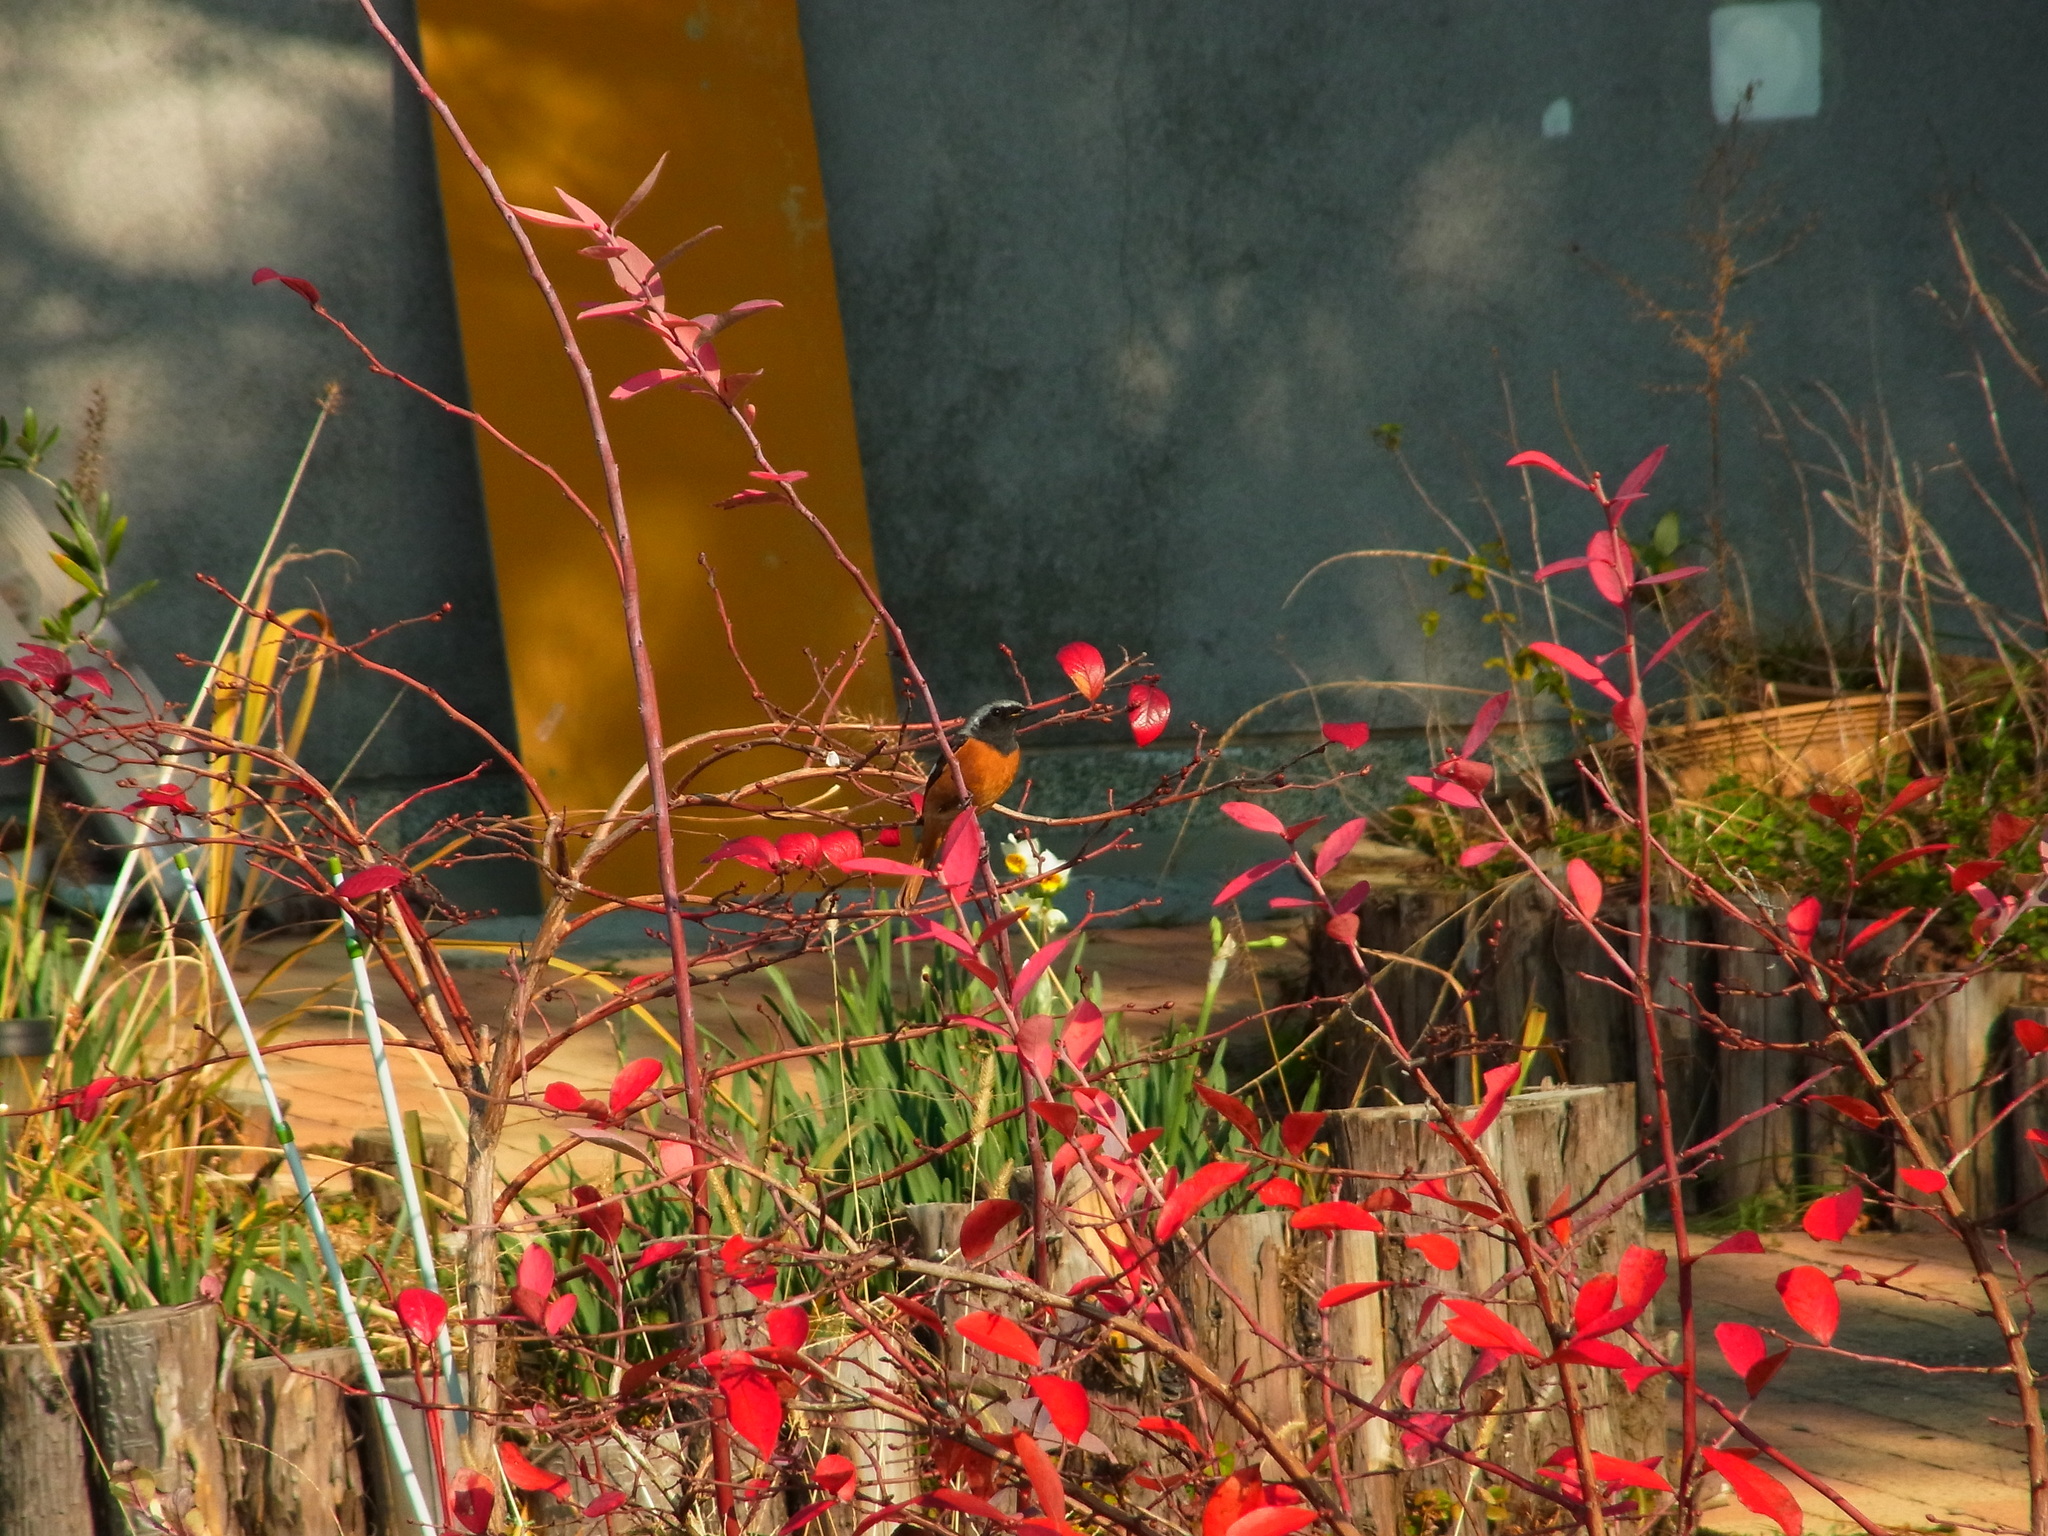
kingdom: Animalia
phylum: Chordata
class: Aves
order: Passeriformes
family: Muscicapidae
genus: Phoenicurus
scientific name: Phoenicurus auroreus
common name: Daurian redstart
